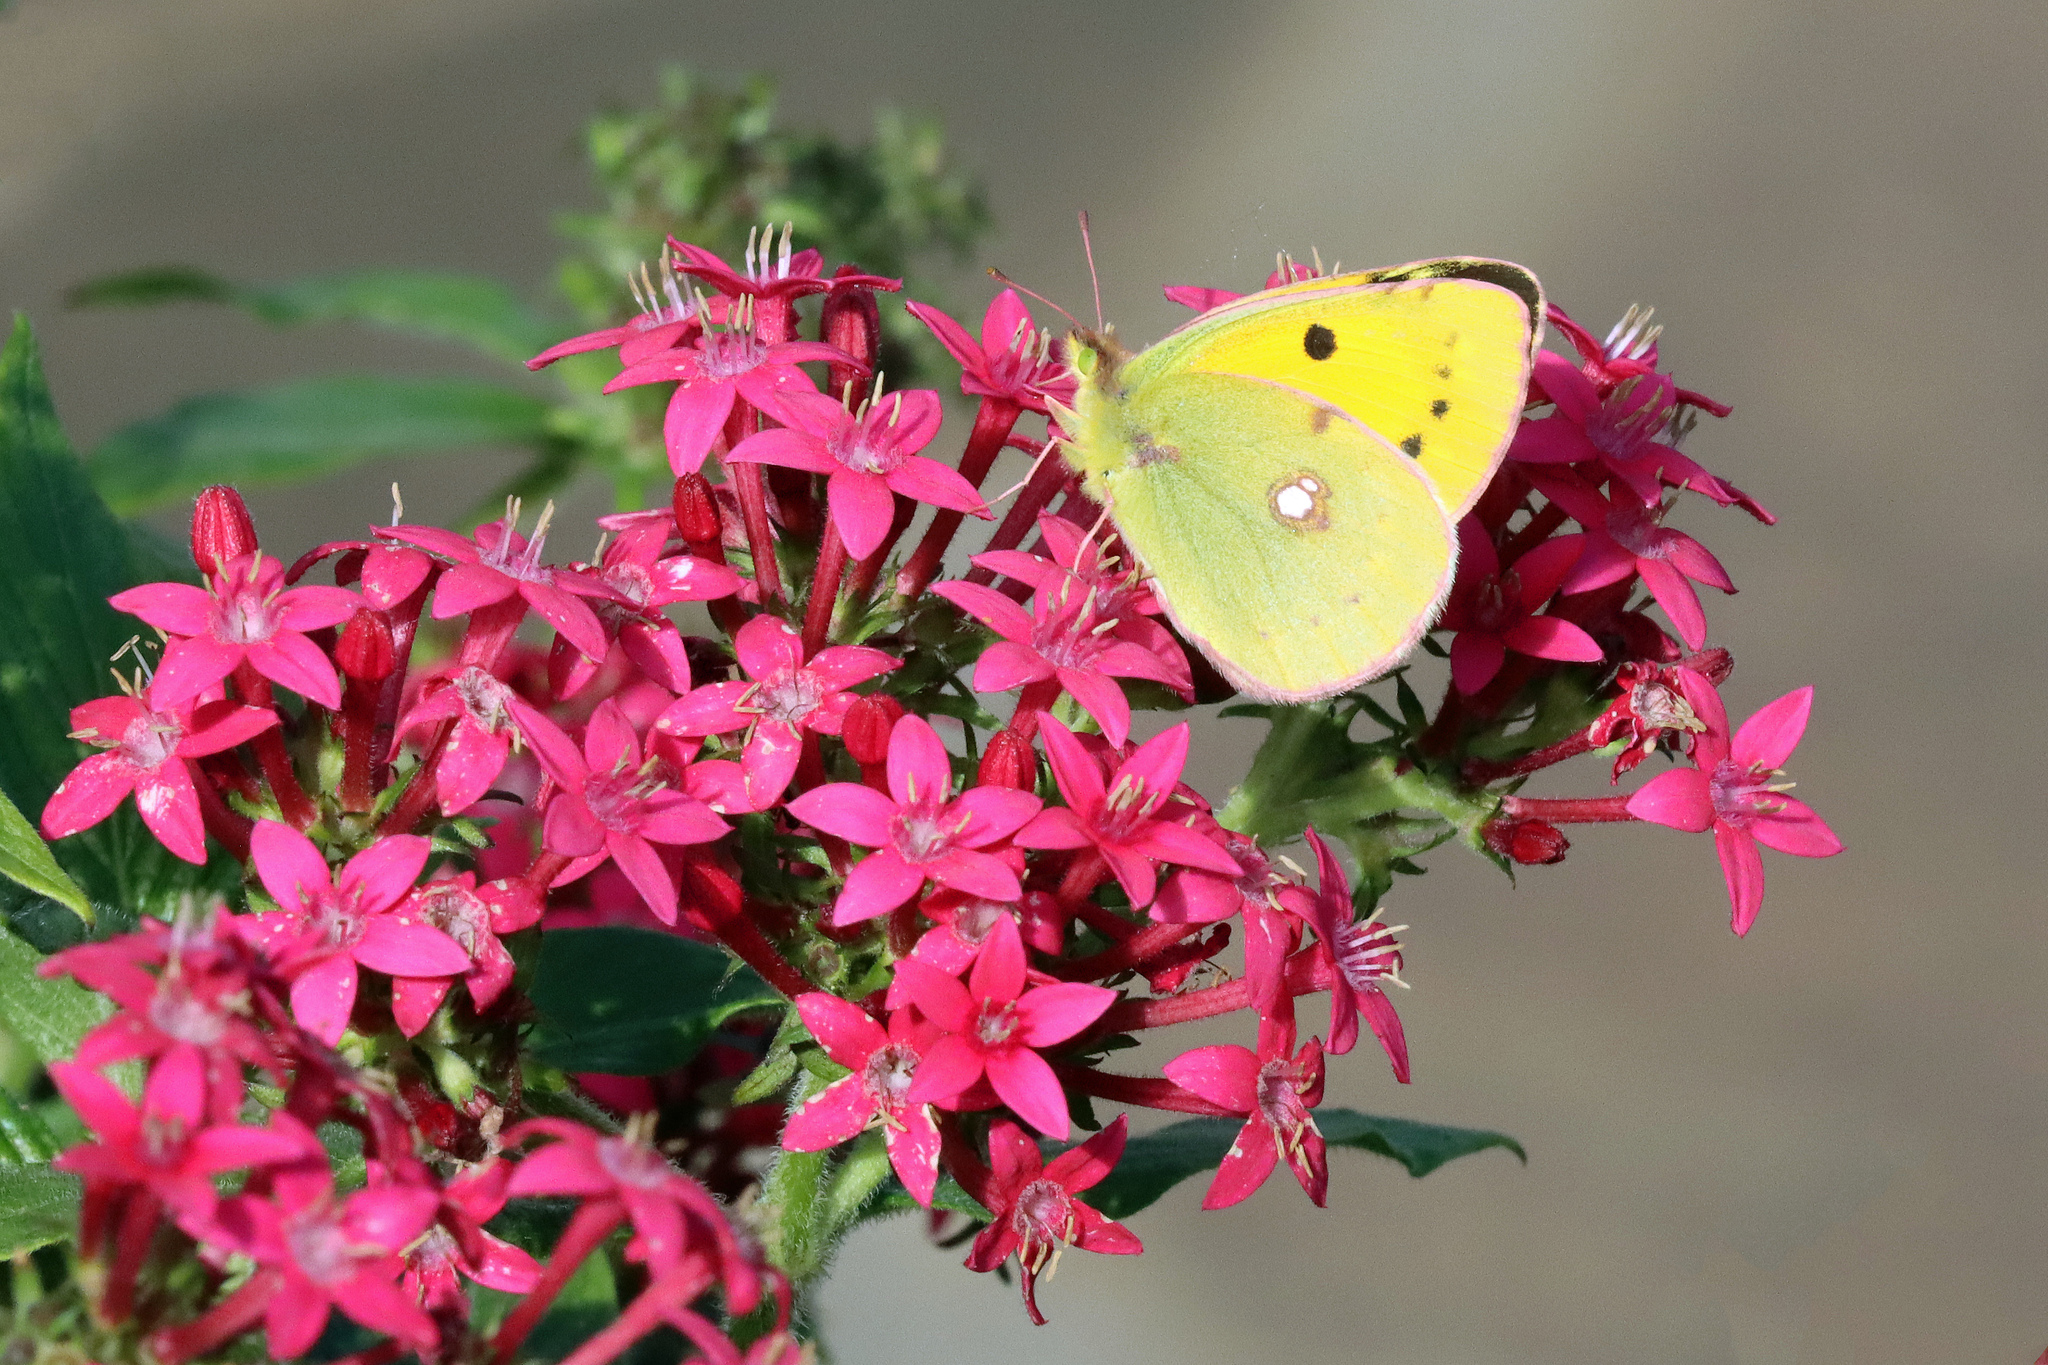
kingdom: Animalia
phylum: Arthropoda
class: Insecta
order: Lepidoptera
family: Pieridae
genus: Colias
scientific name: Colias croceus
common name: Clouded yellow
